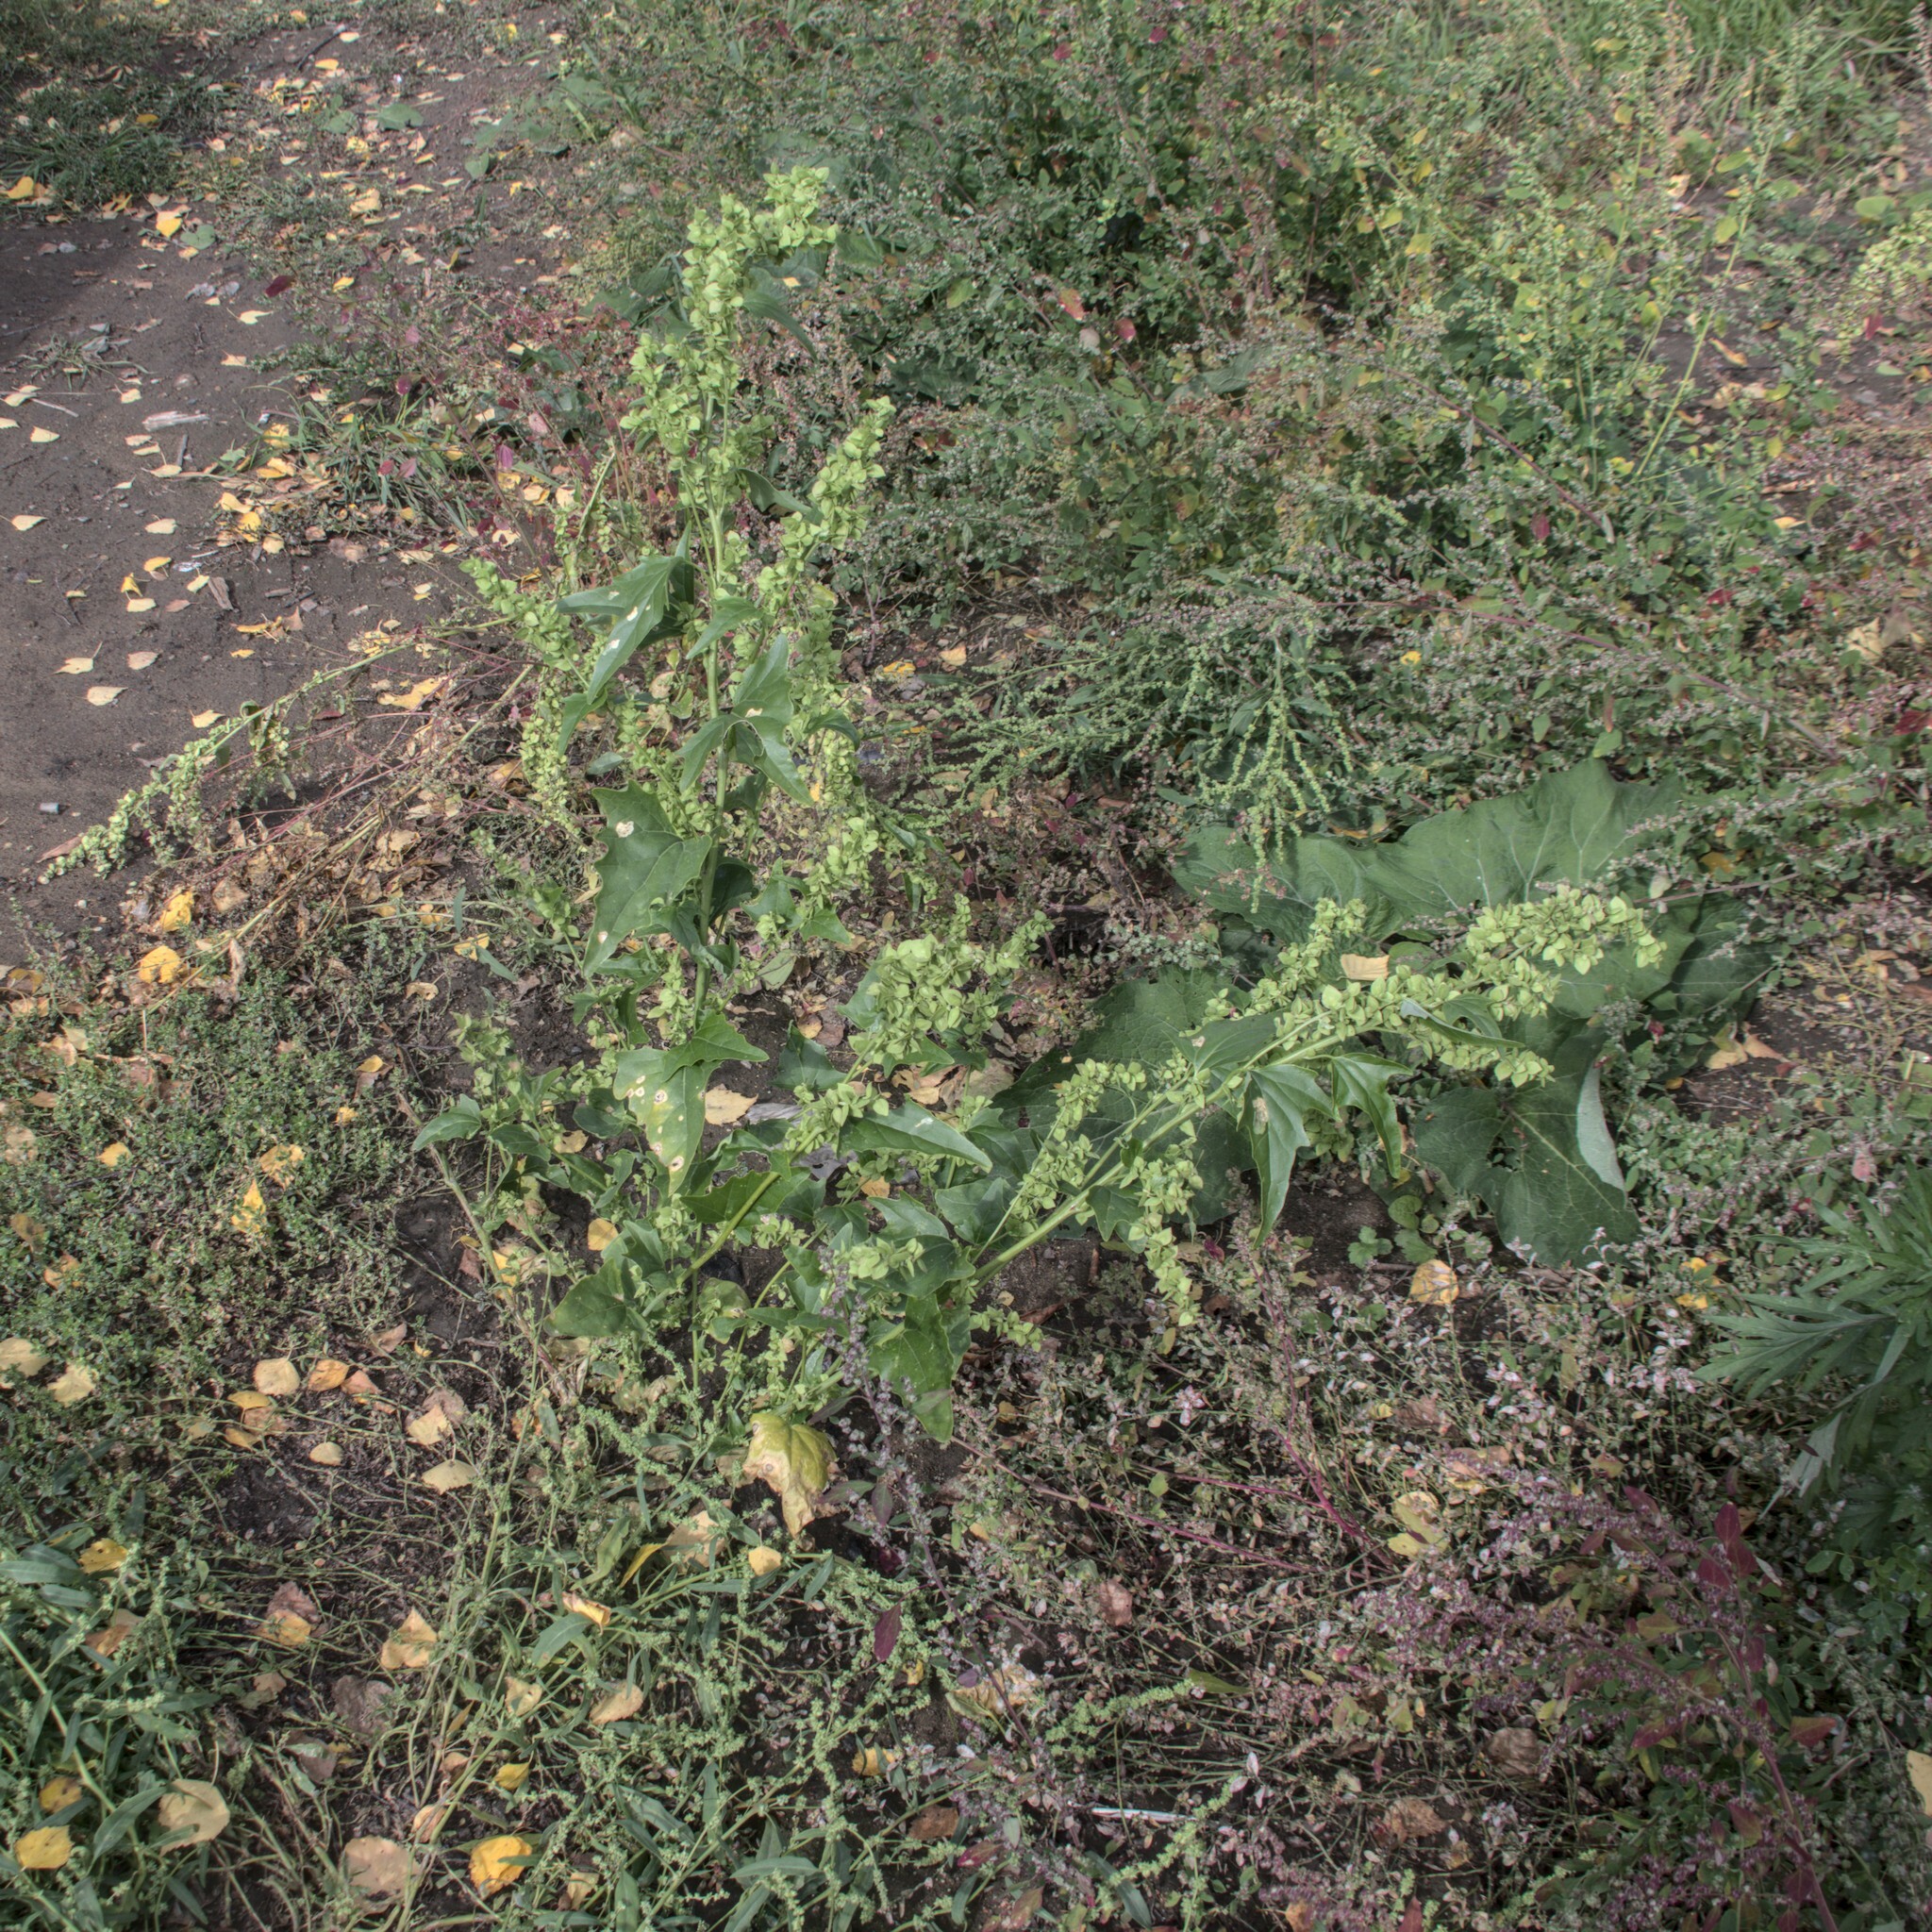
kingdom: Plantae
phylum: Tracheophyta
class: Magnoliopsida
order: Caryophyllales
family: Amaranthaceae
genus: Atriplex
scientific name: Atriplex sagittata
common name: Purple orache
